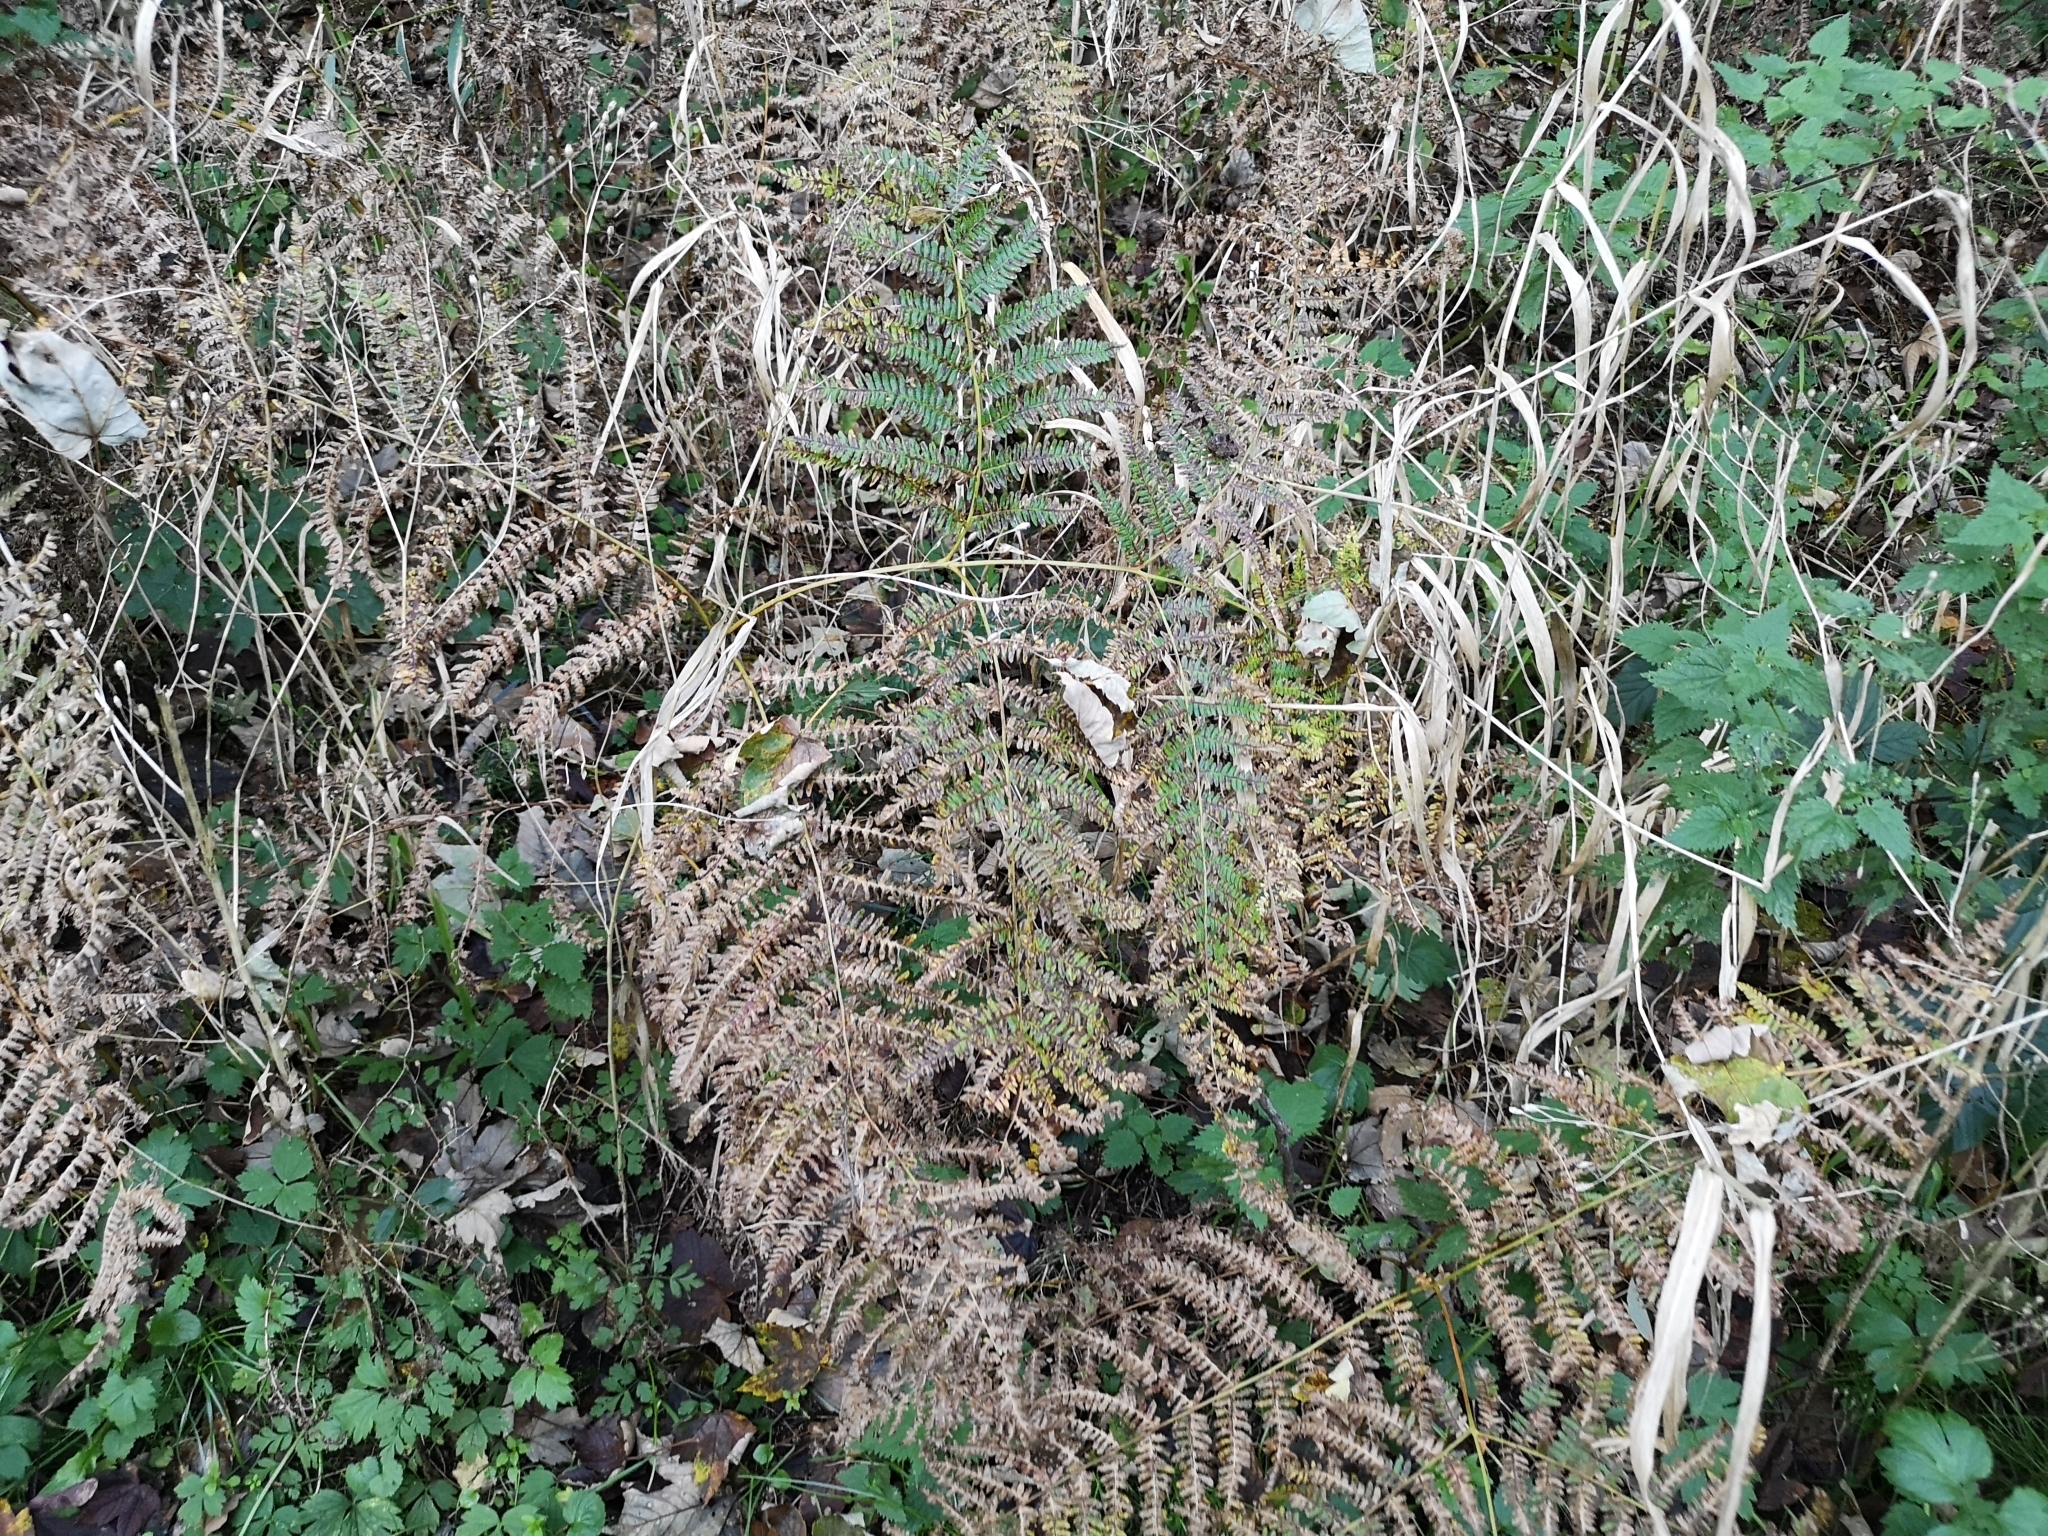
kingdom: Plantae
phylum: Tracheophyta
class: Polypodiopsida
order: Polypodiales
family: Dennstaedtiaceae
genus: Pteridium
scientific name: Pteridium aquilinum
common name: Bracken
